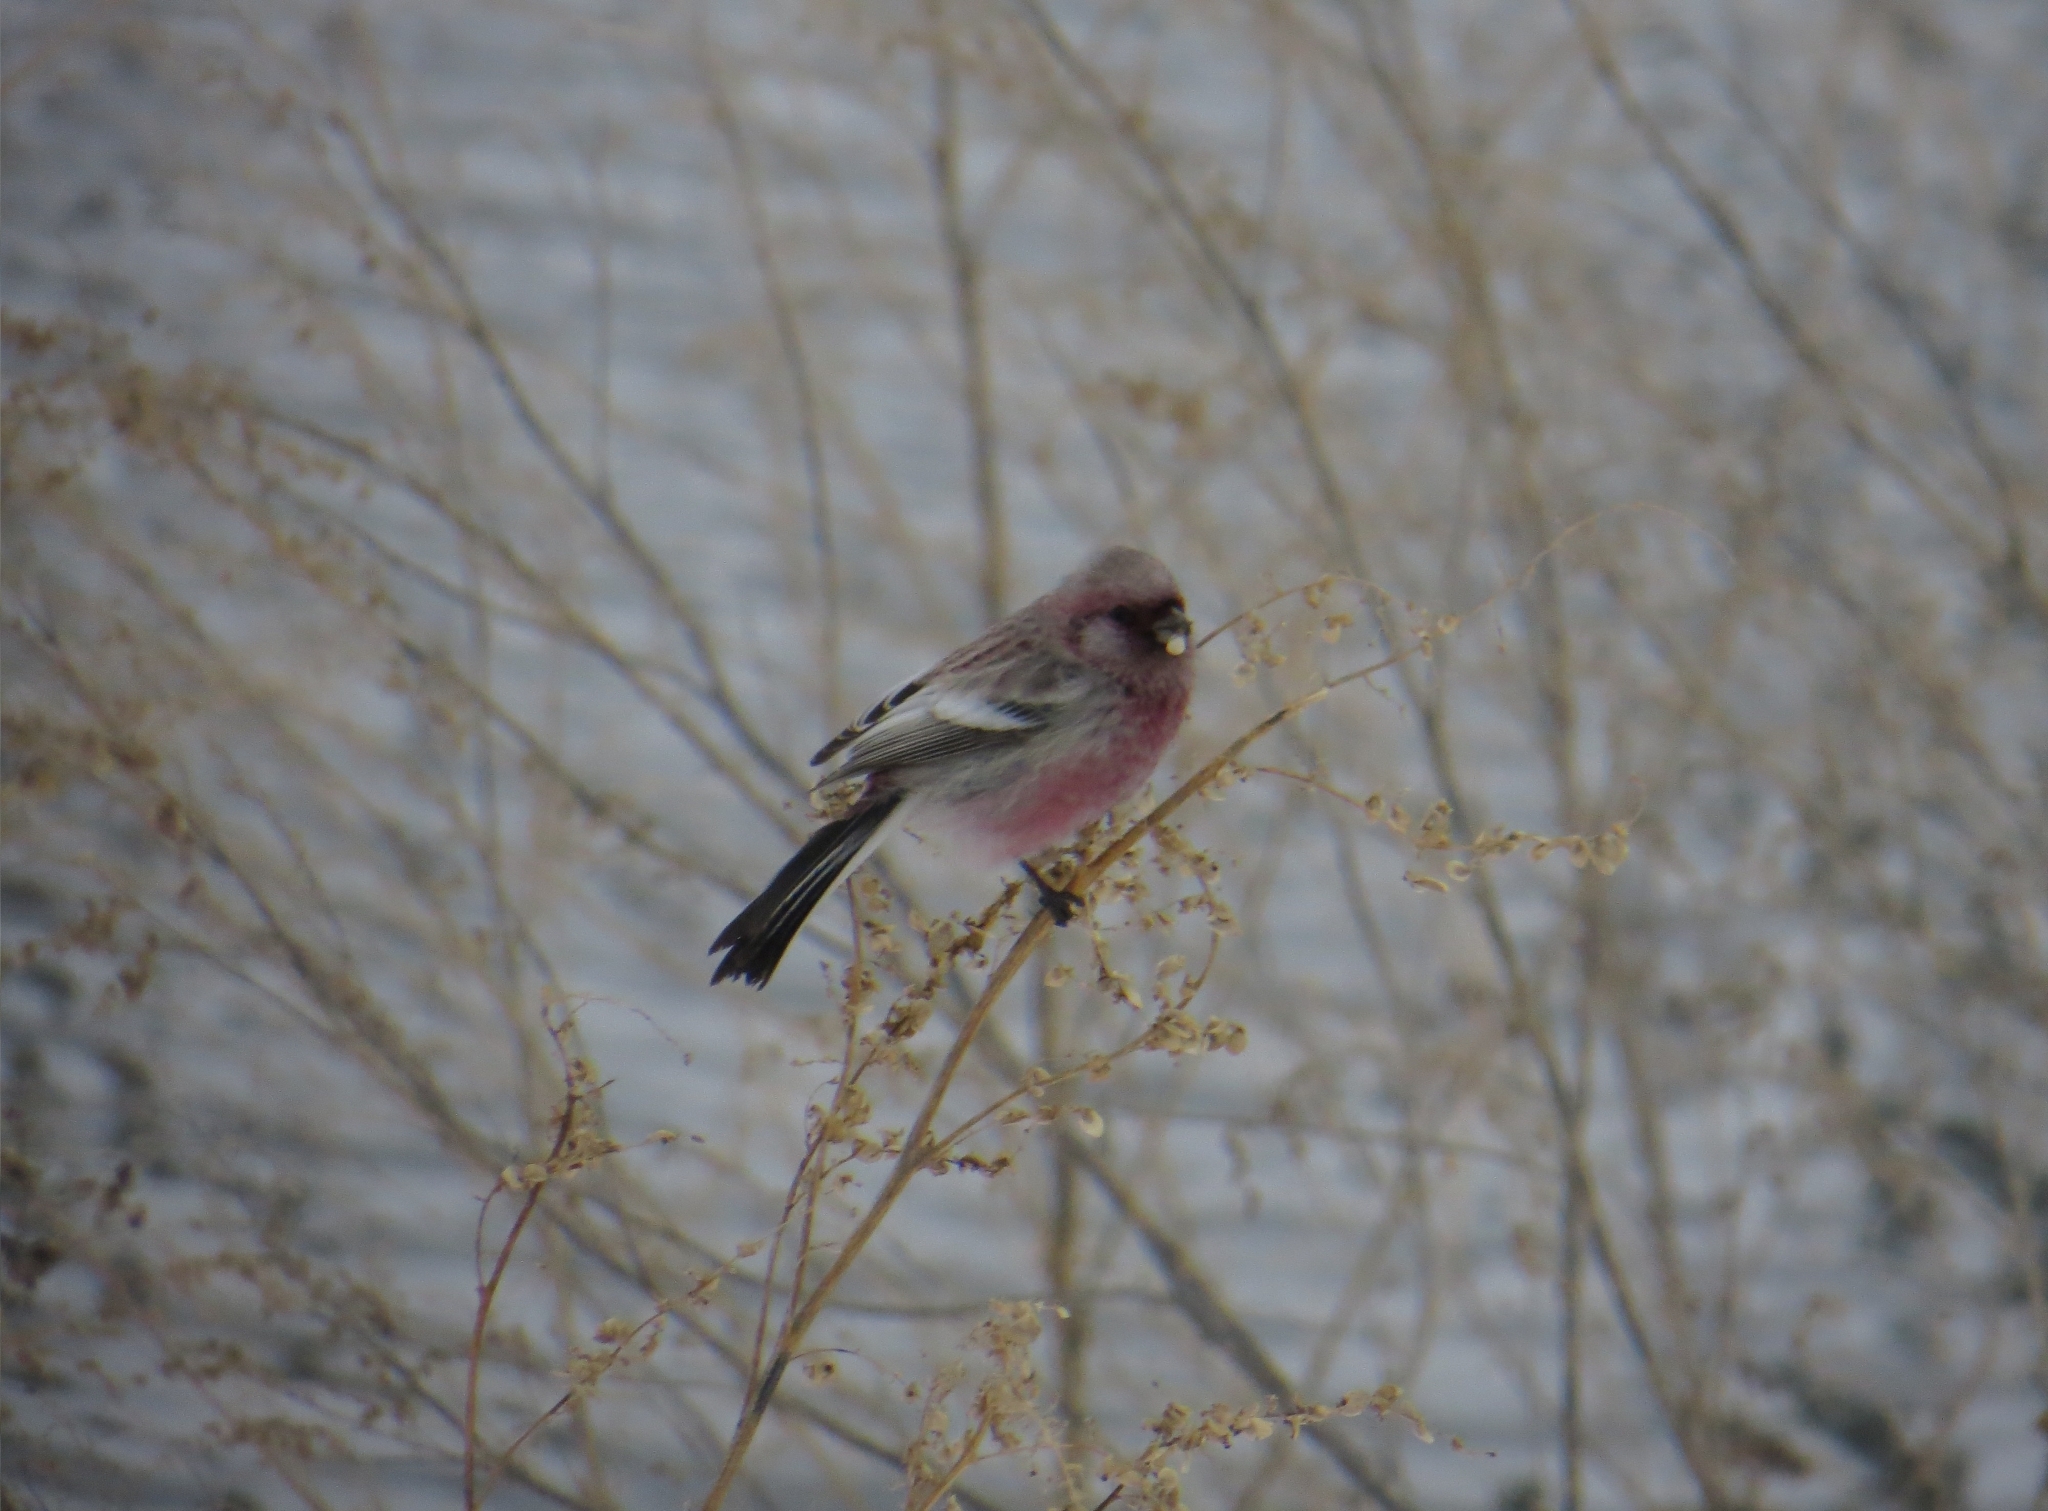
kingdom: Animalia
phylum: Chordata
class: Aves
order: Passeriformes
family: Fringillidae
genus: Carpodacus
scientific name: Carpodacus sibiricus
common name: Long-tailed rosefinch
